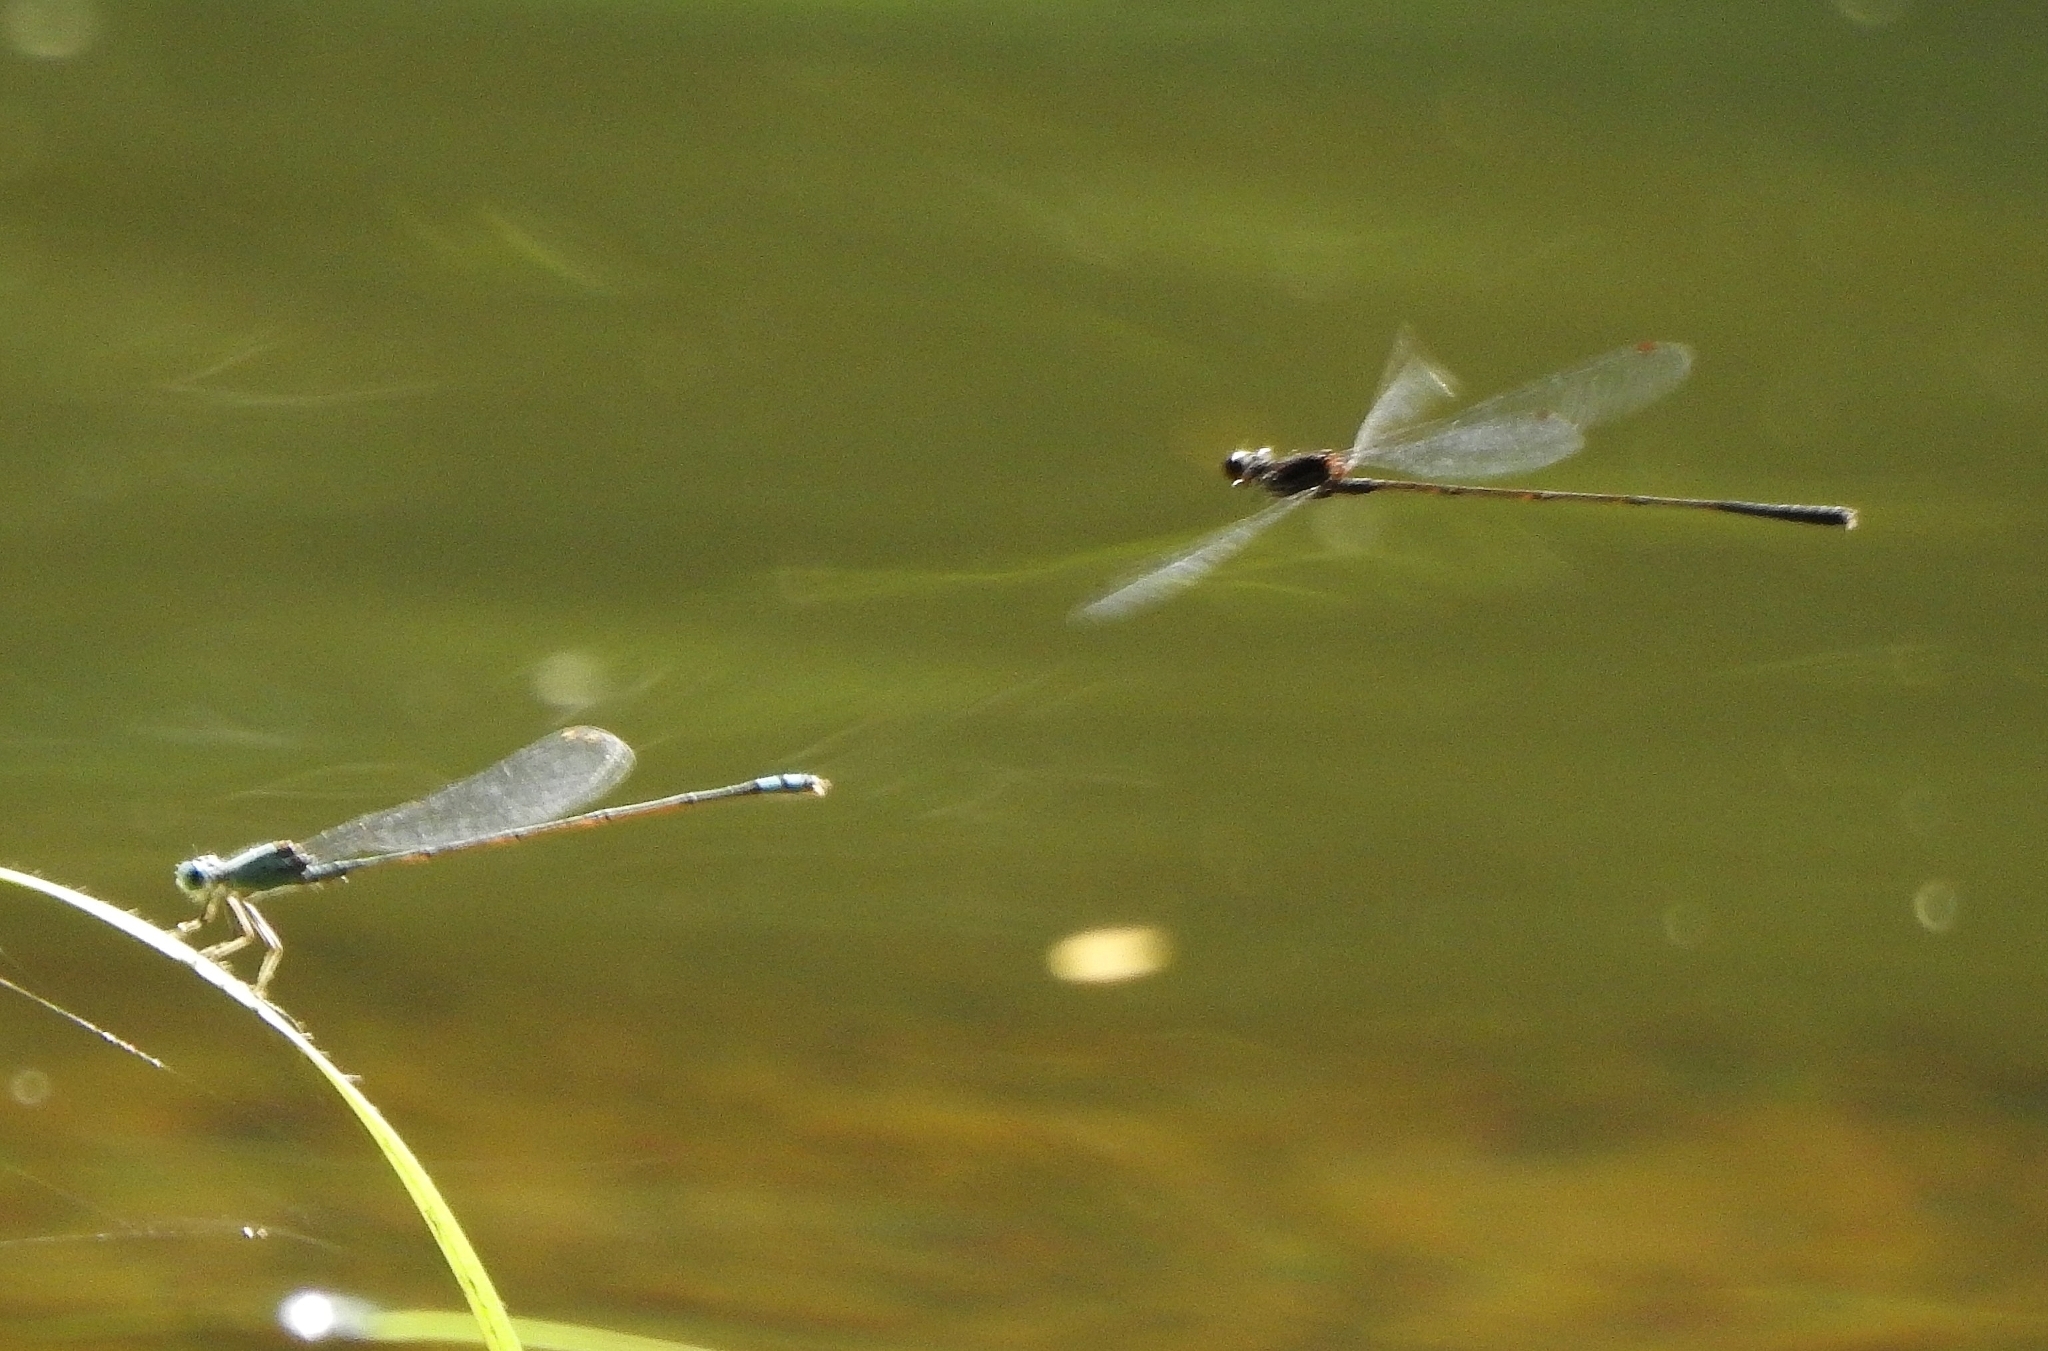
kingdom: Animalia
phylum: Arthropoda
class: Insecta
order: Odonata
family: Platycnemididae
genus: Prodasineura
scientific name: Prodasineura verticalis
